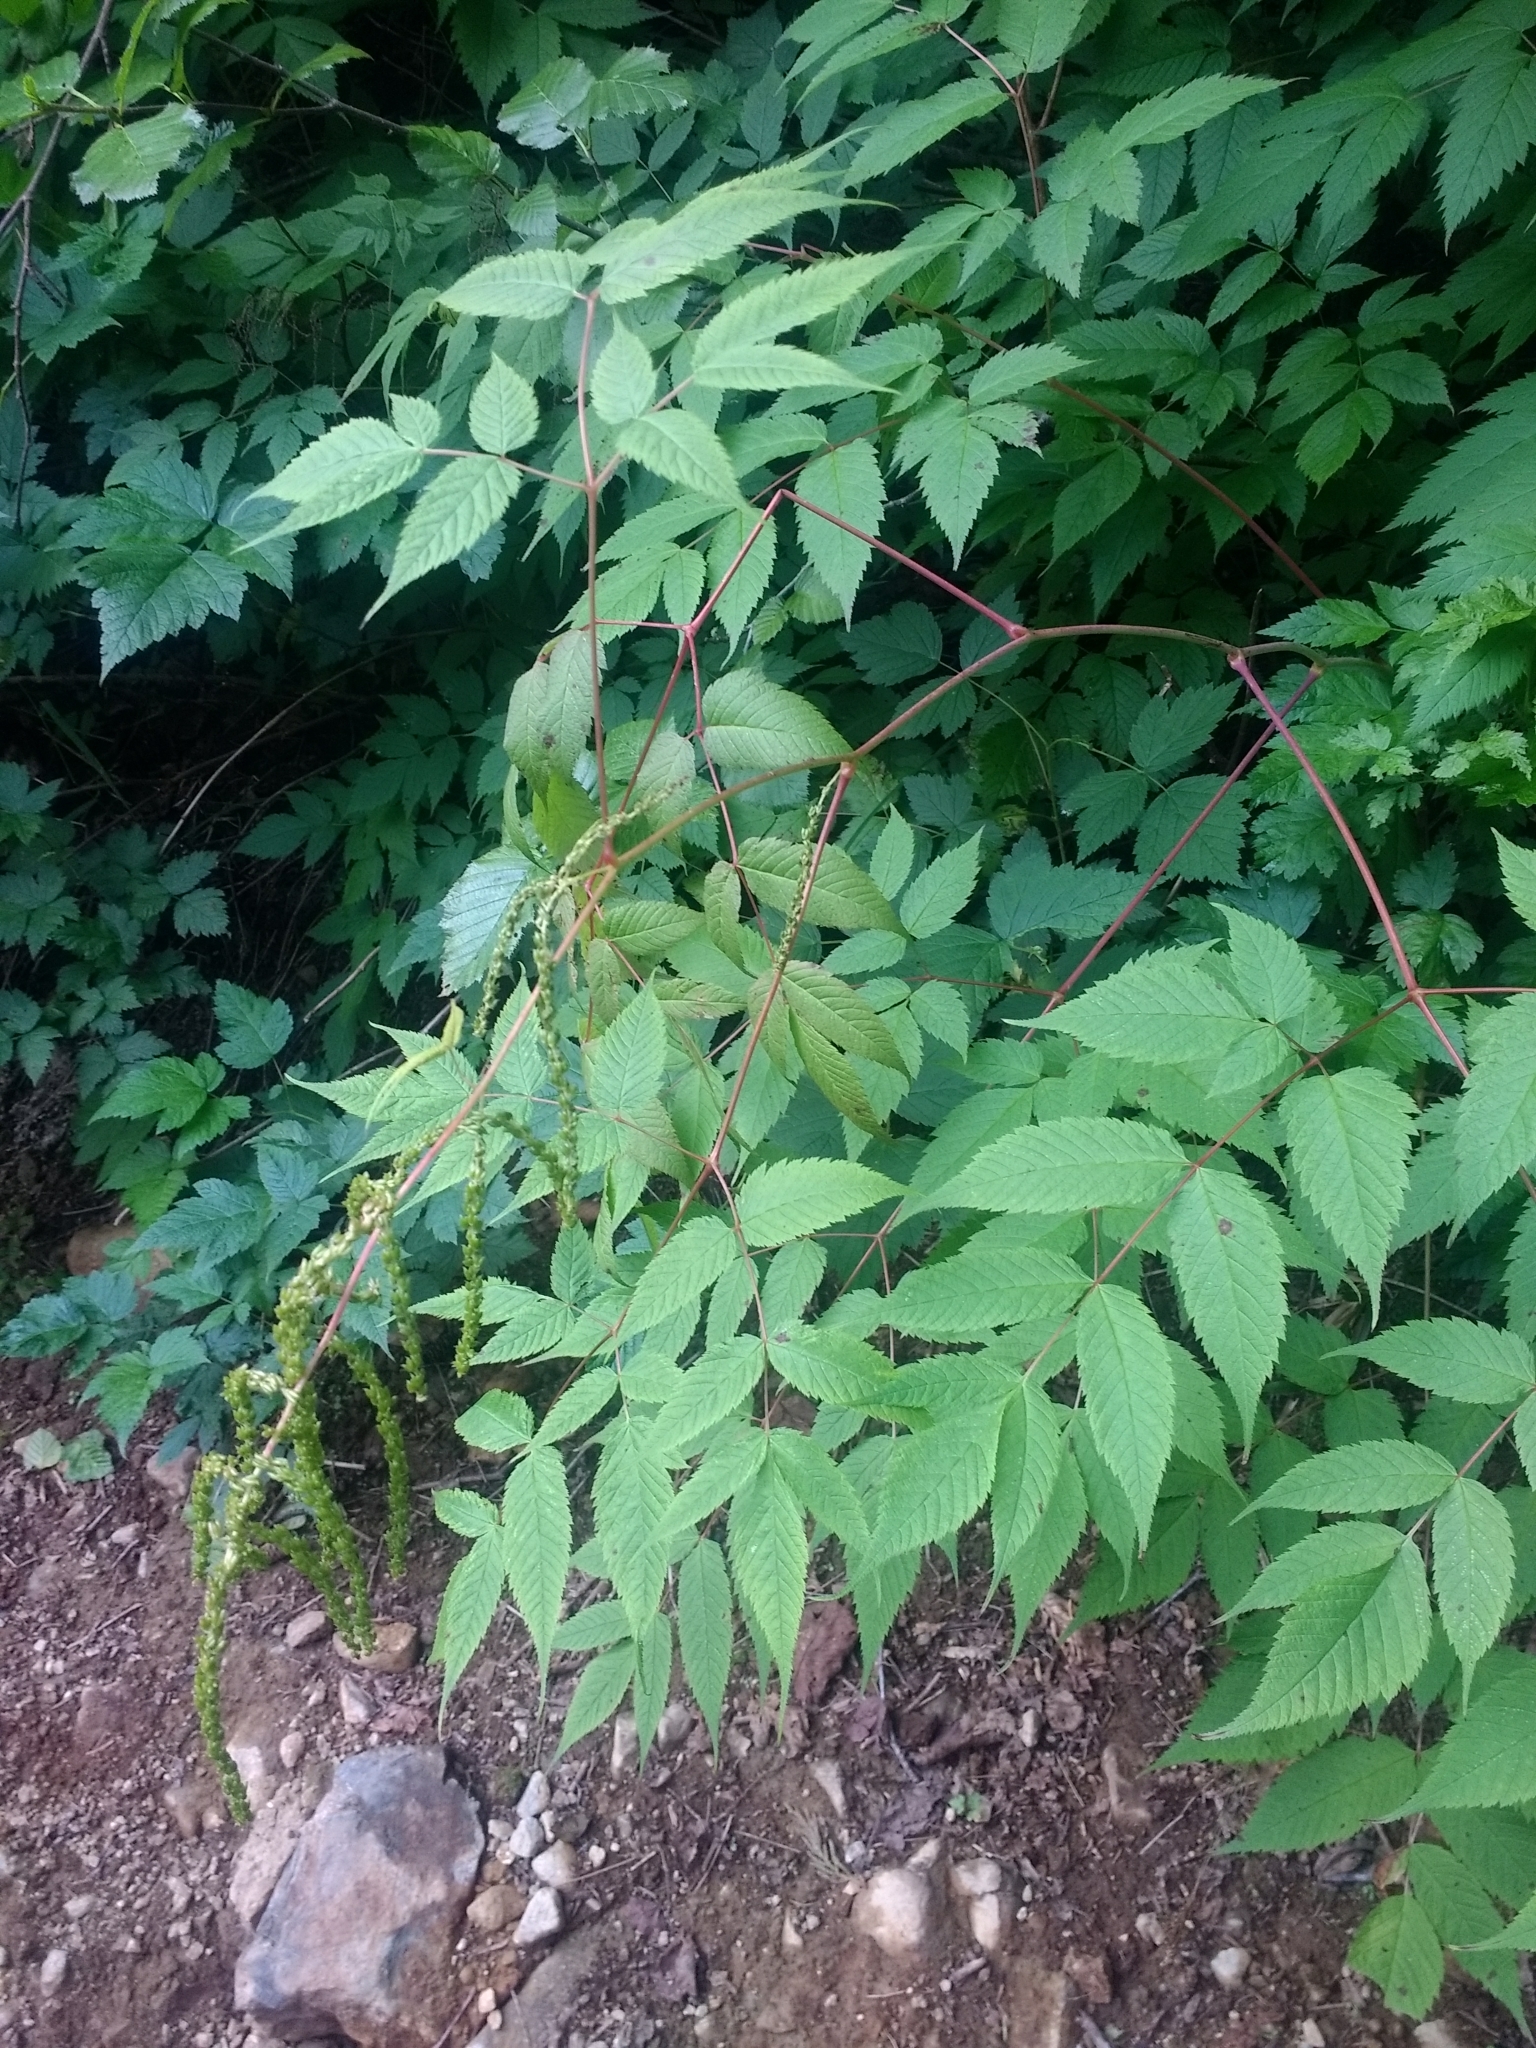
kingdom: Plantae
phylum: Tracheophyta
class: Magnoliopsida
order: Rosales
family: Rosaceae
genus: Aruncus
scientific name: Aruncus dioicus
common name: Buck's-beard
